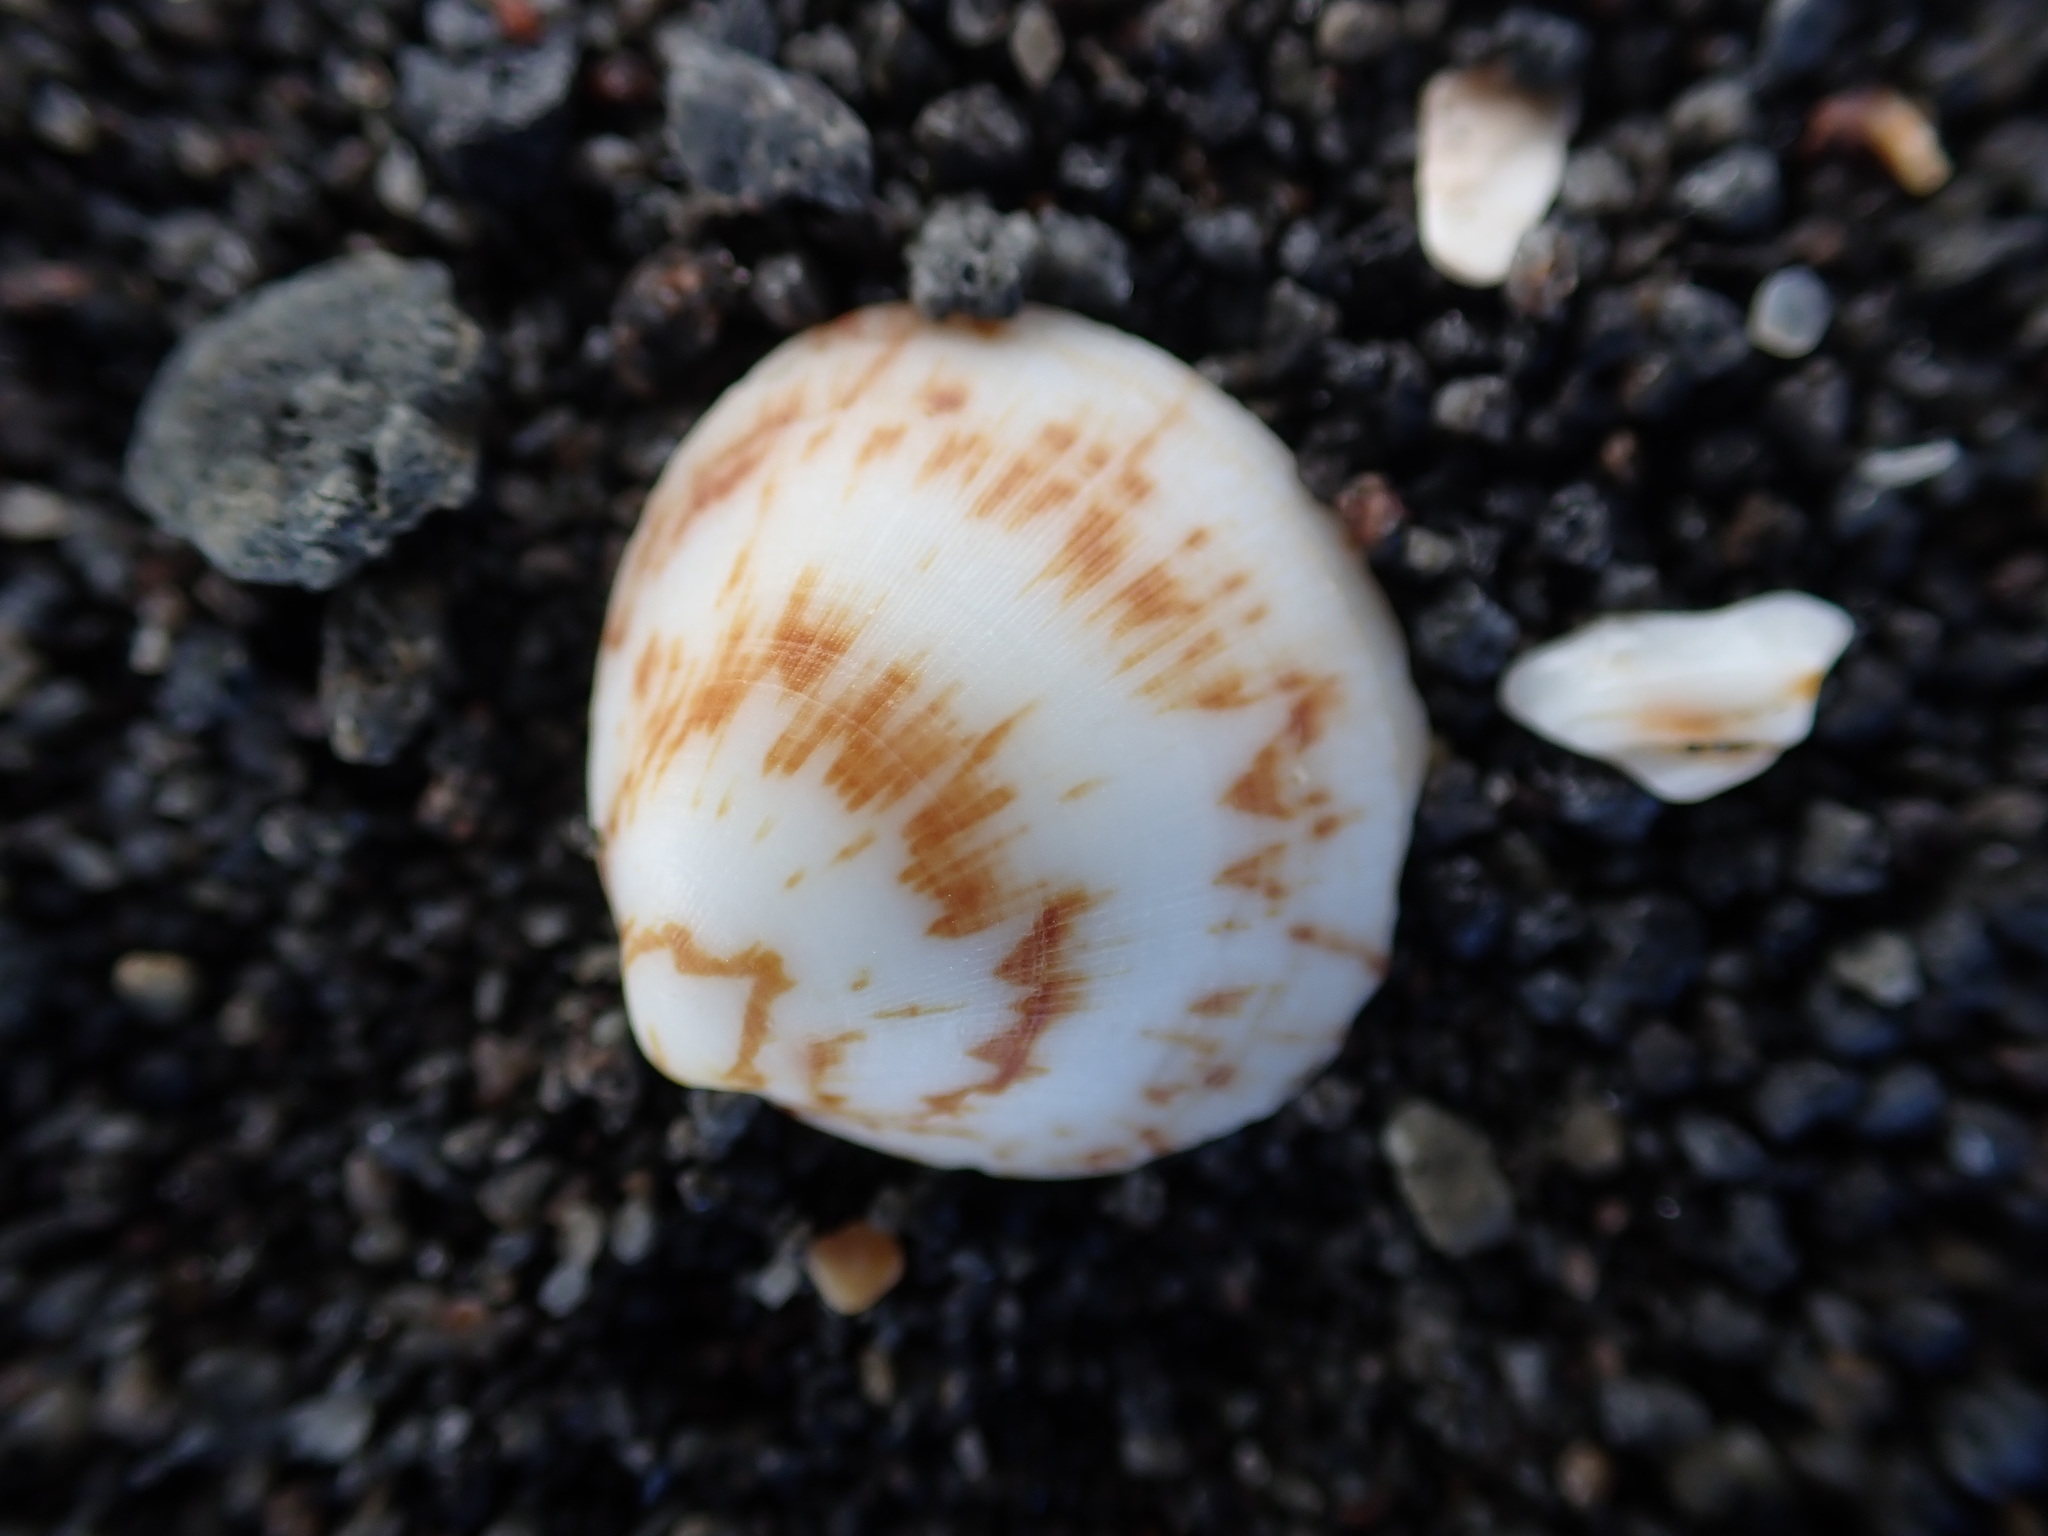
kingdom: Animalia
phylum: Mollusca
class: Bivalvia
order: Arcida
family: Glycymerididae
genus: Glycymeris
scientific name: Glycymeris modesta
